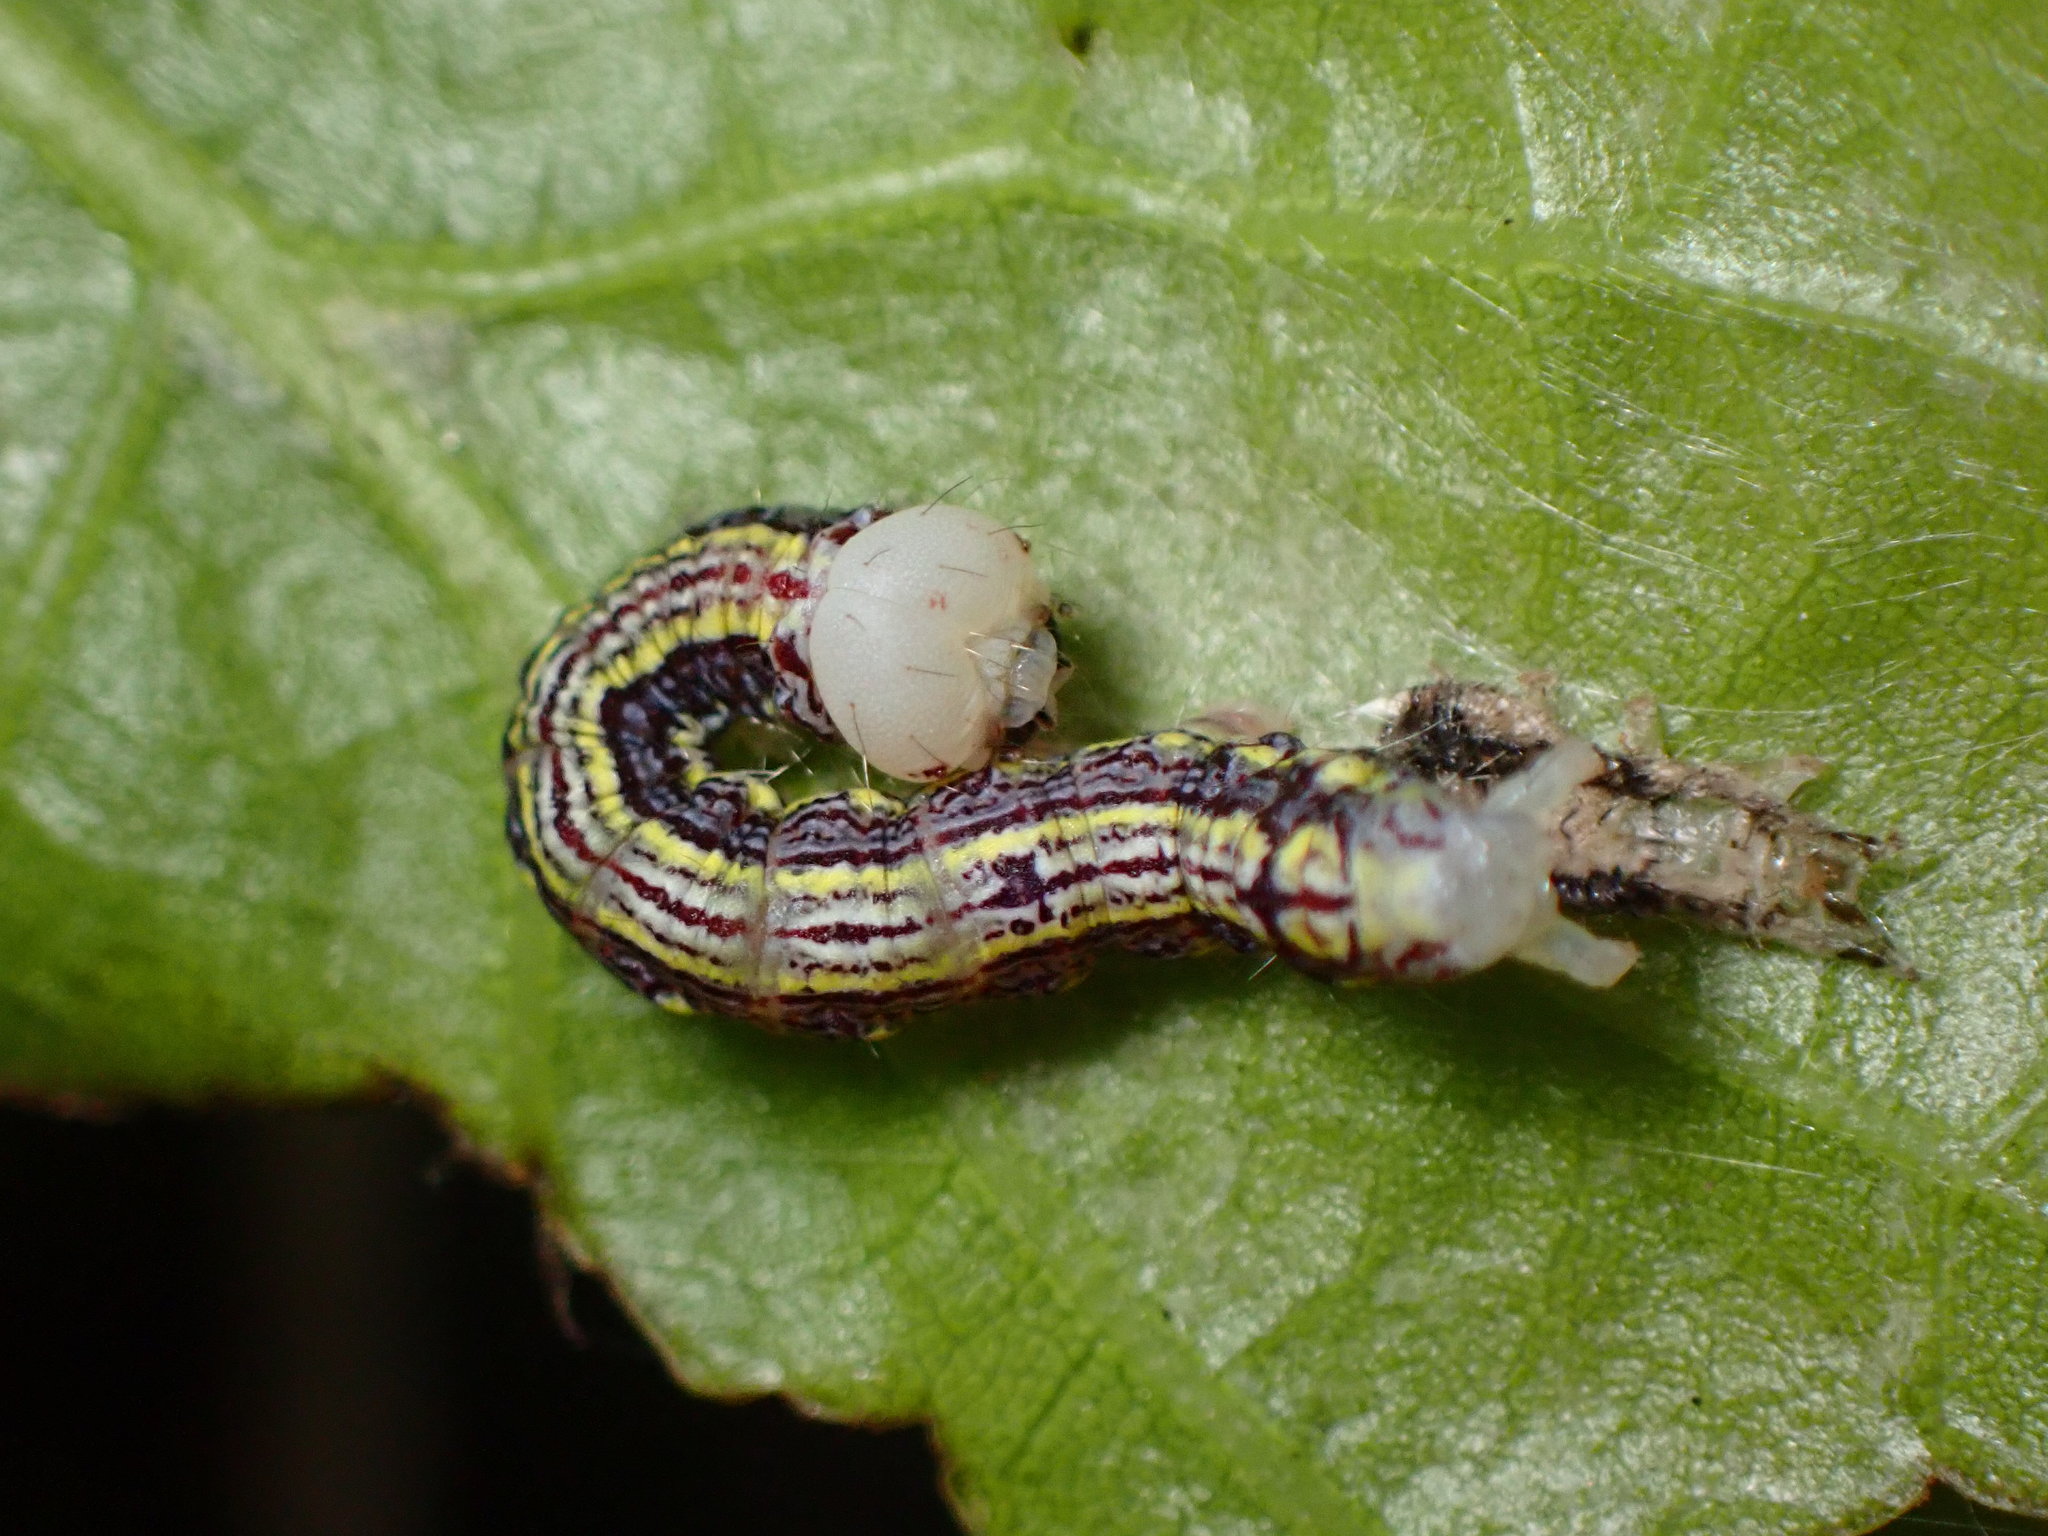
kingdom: Animalia
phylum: Arthropoda
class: Insecta
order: Lepidoptera
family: Notodontidae
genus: Phryganidia
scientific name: Phryganidia californica
